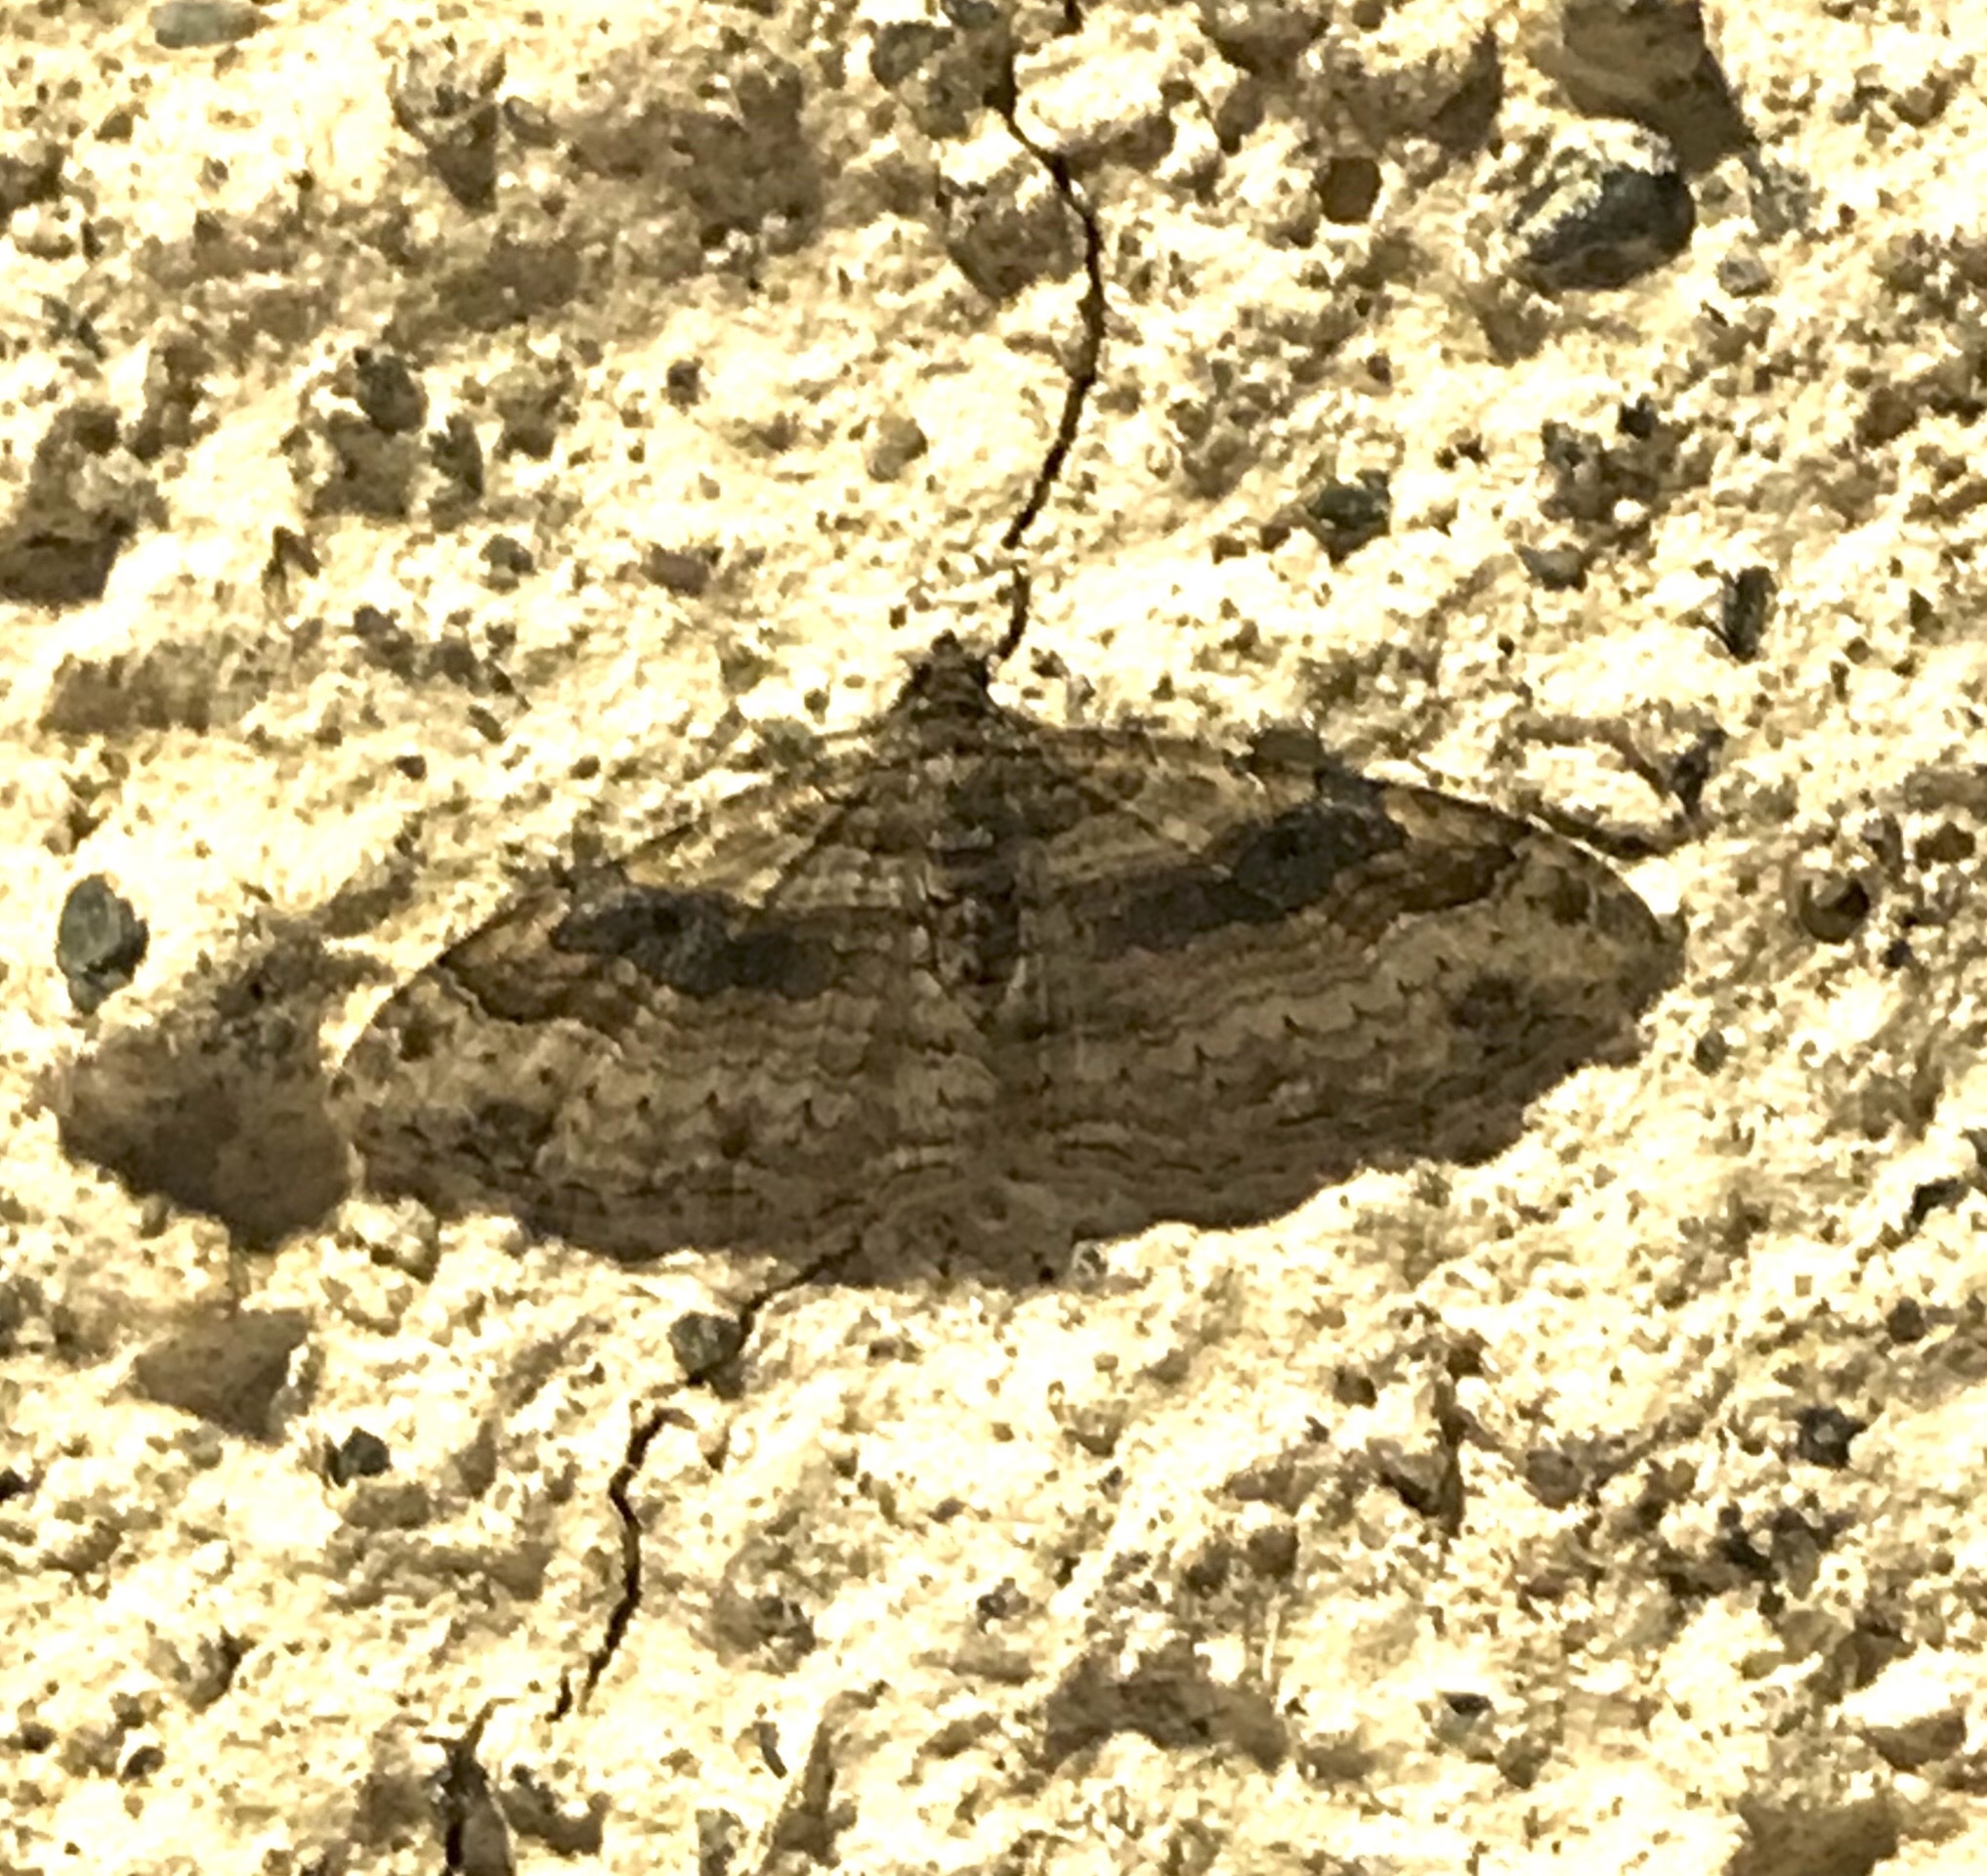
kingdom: Animalia
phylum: Arthropoda
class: Insecta
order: Lepidoptera
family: Geometridae
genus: Costaconvexa
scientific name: Costaconvexa centrostrigaria
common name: Bent-line carpet
